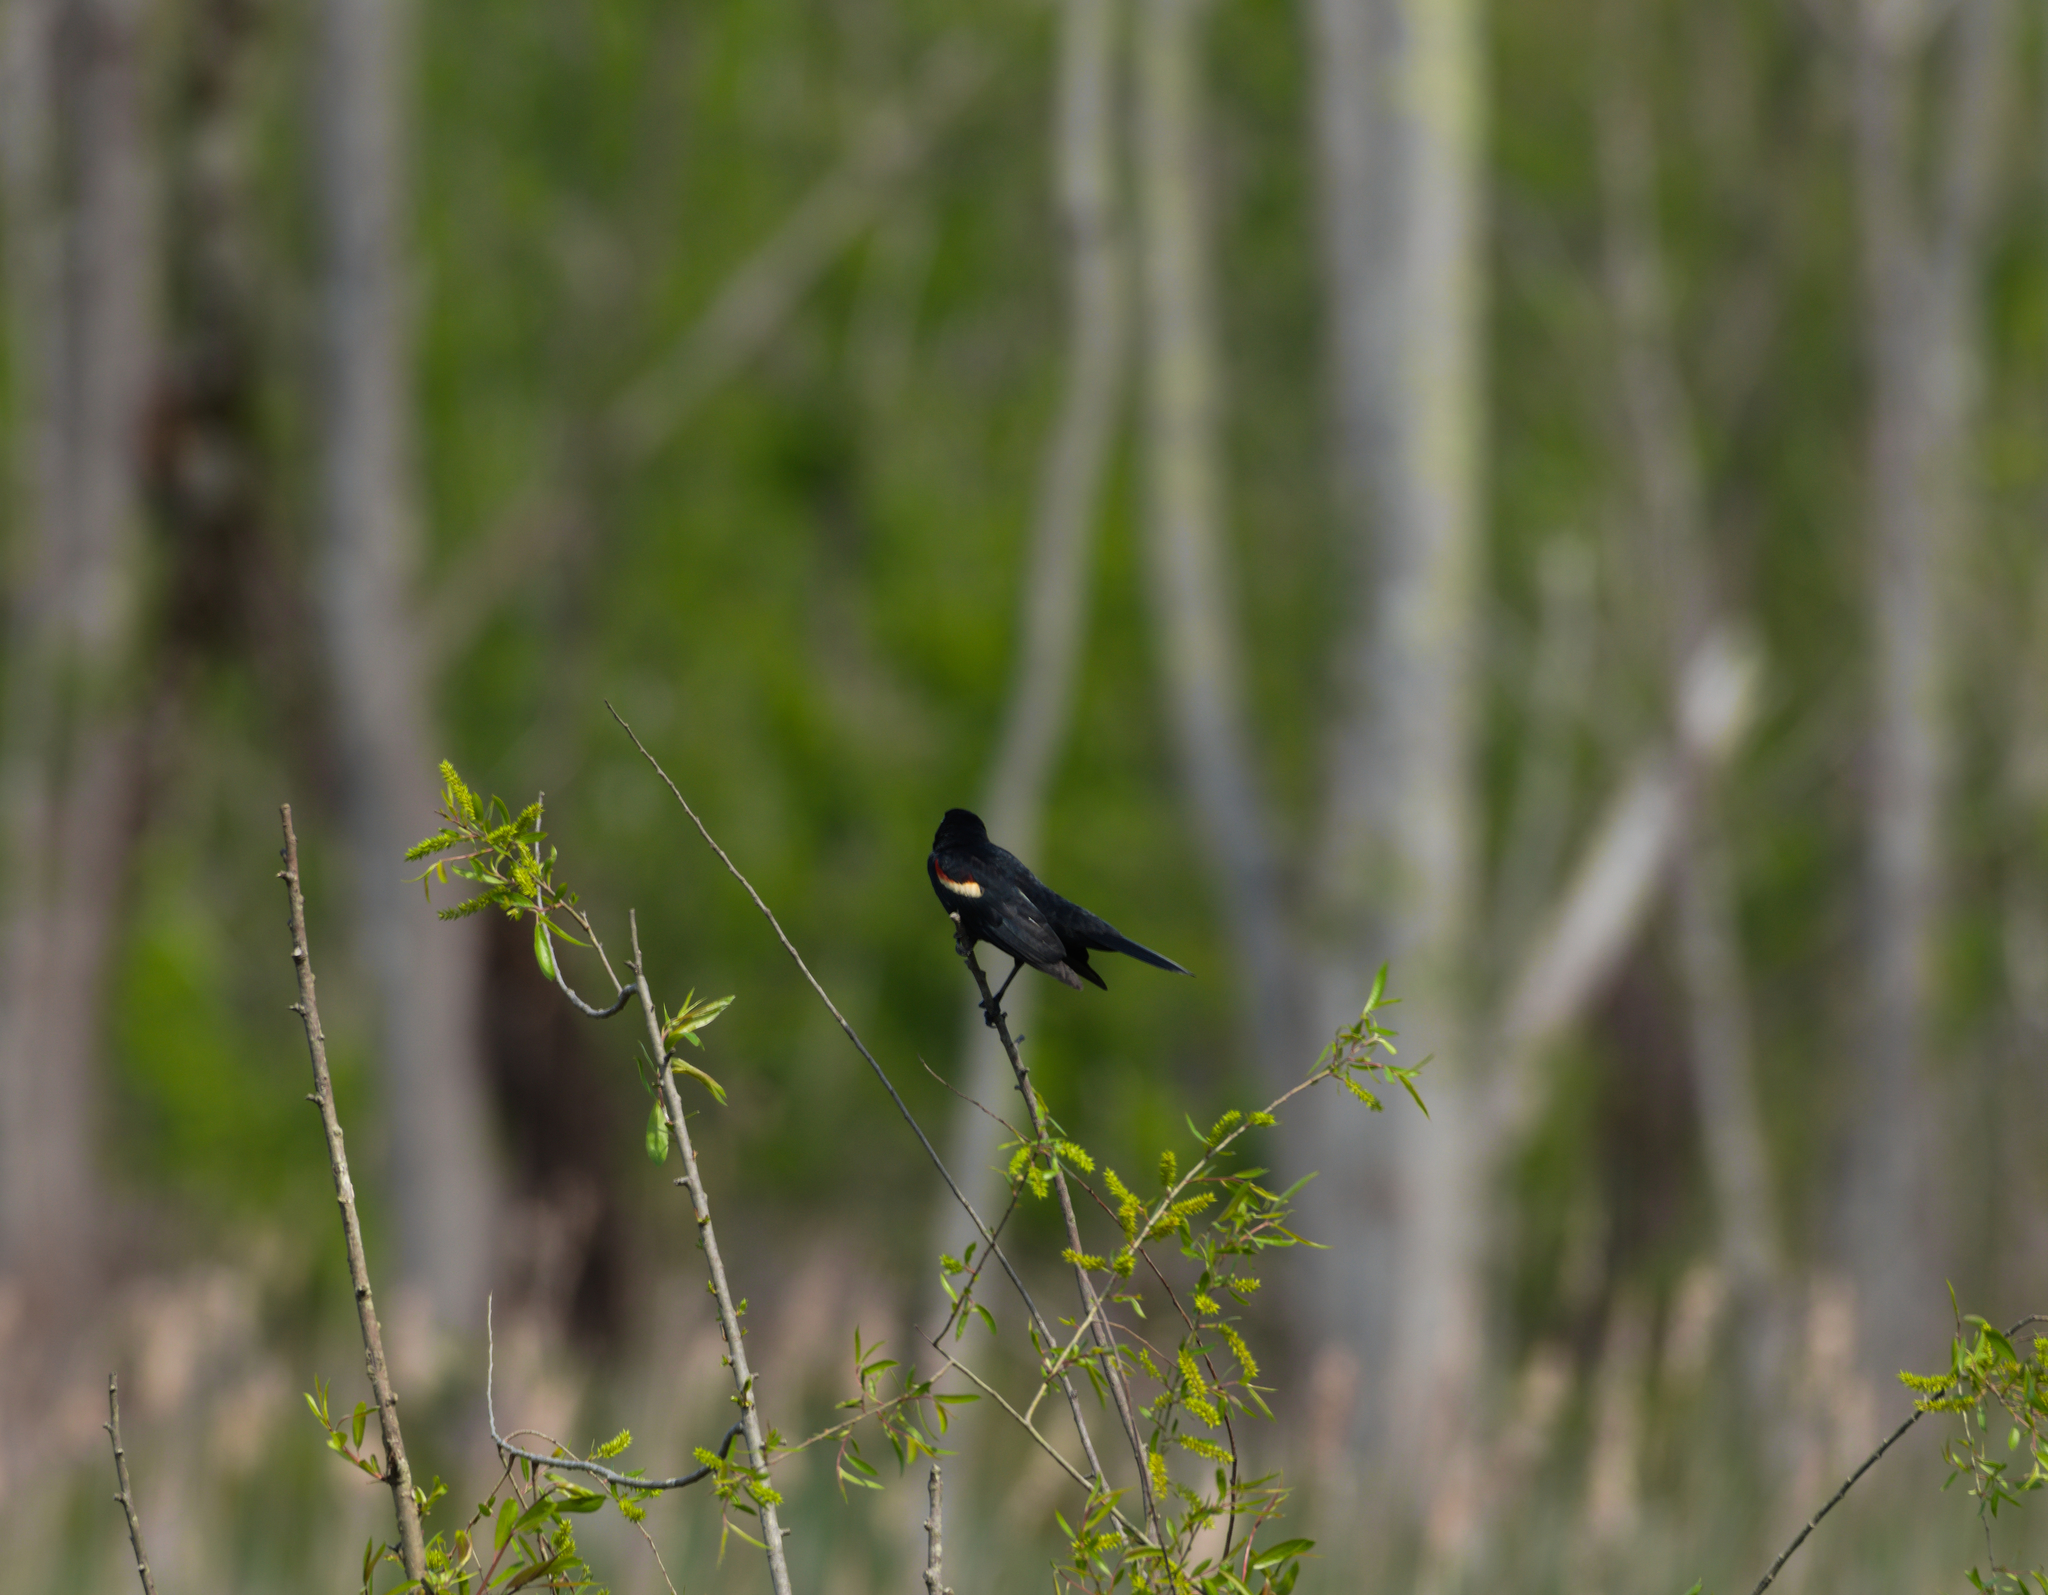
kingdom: Animalia
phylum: Chordata
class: Aves
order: Passeriformes
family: Icteridae
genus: Agelaius
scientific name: Agelaius phoeniceus
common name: Red-winged blackbird
